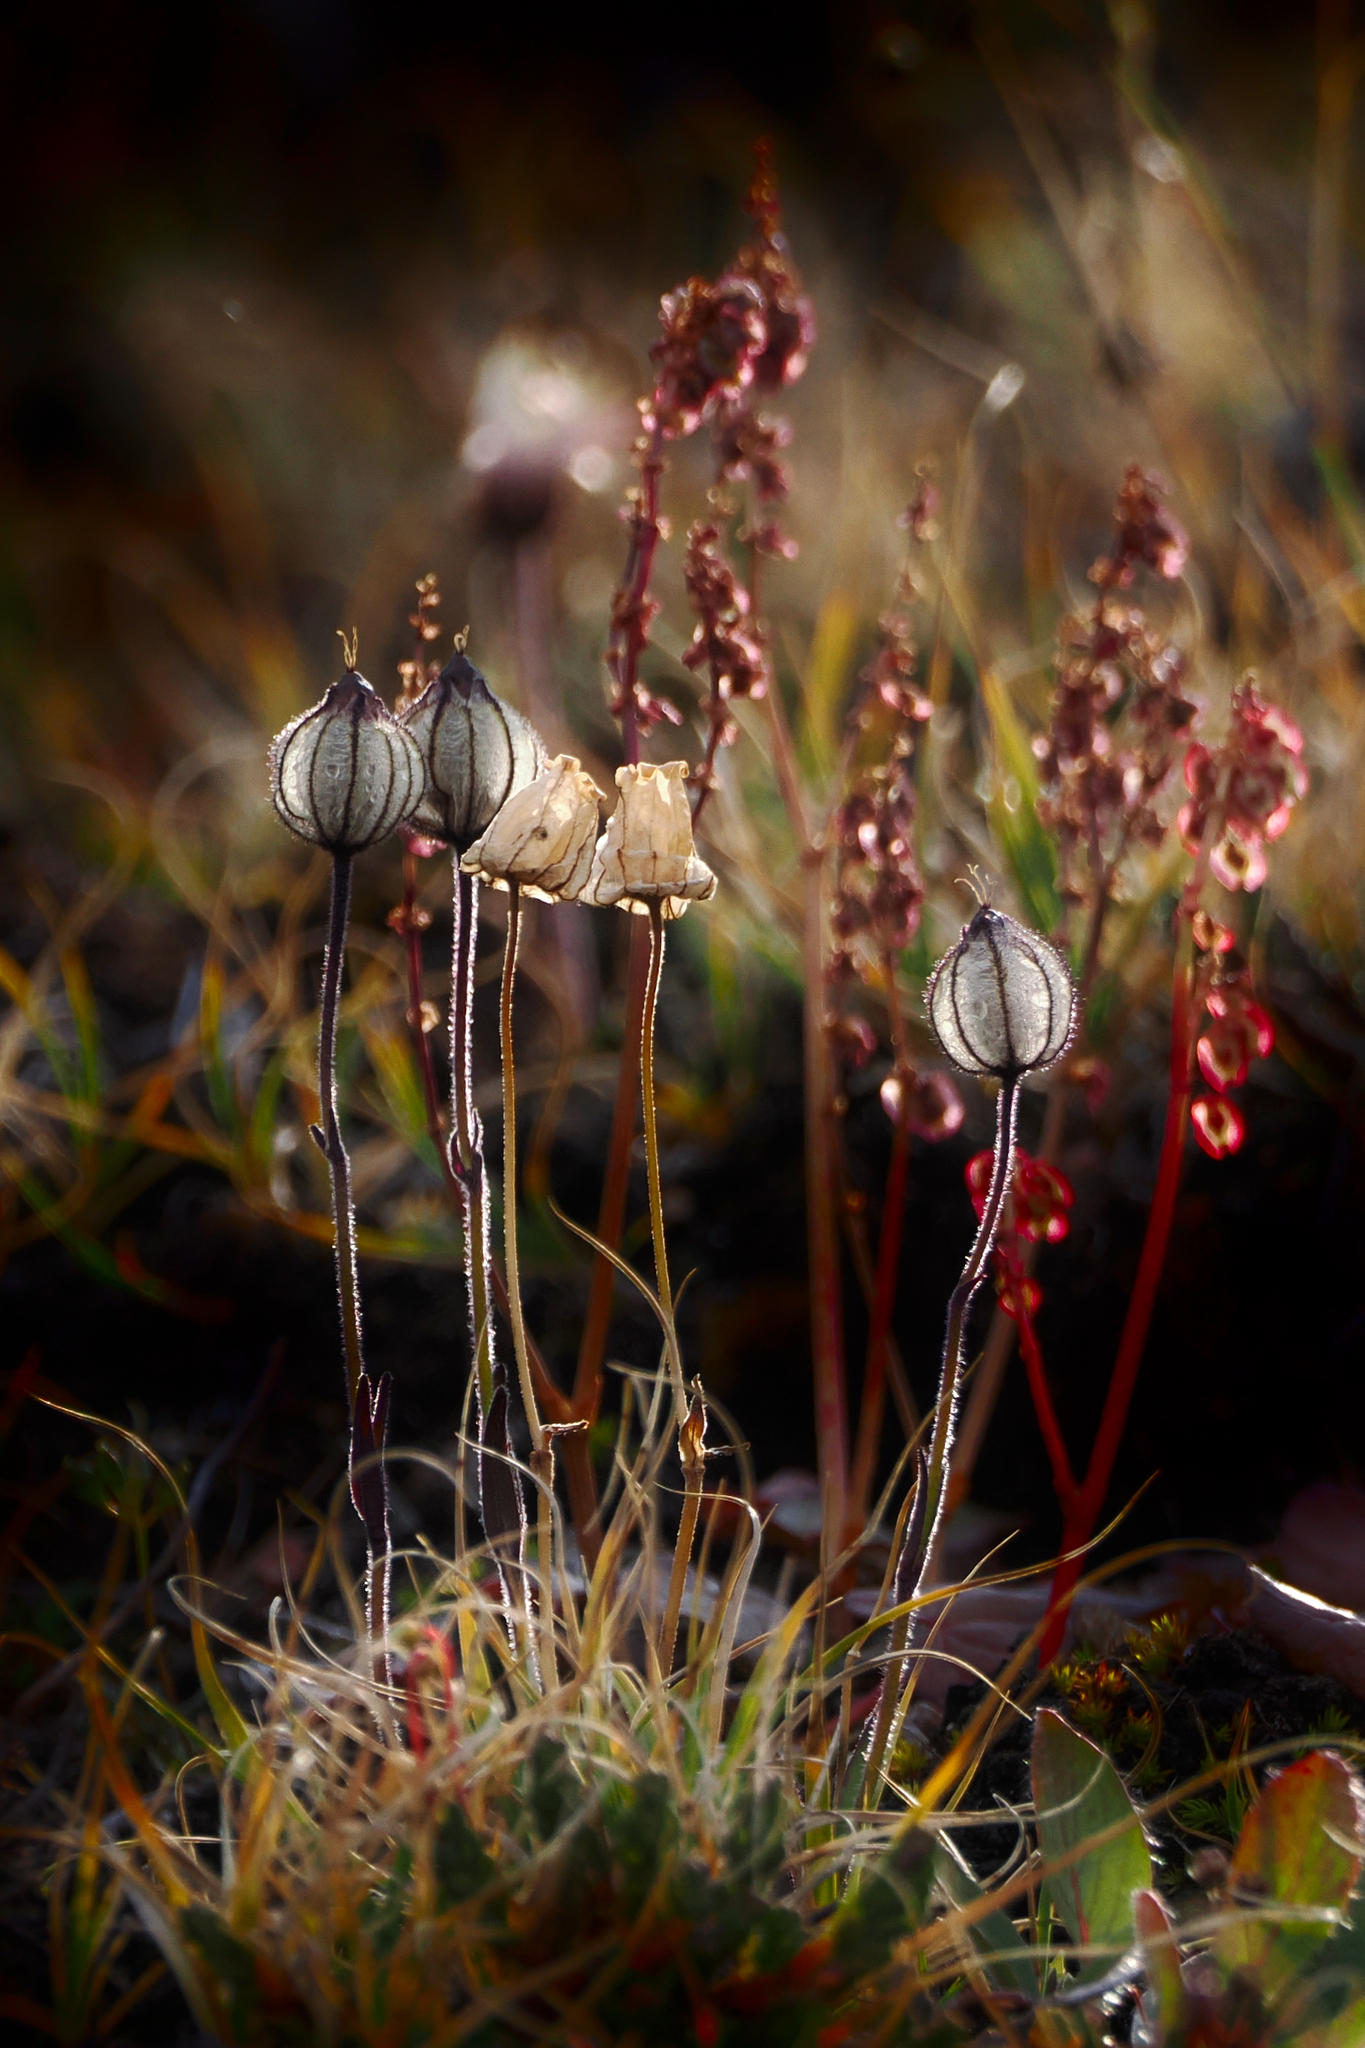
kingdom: Plantae
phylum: Tracheophyta
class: Magnoliopsida
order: Caryophyllales
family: Caryophyllaceae
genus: Silene
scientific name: Silene involucrata
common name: Greater arctic campion
